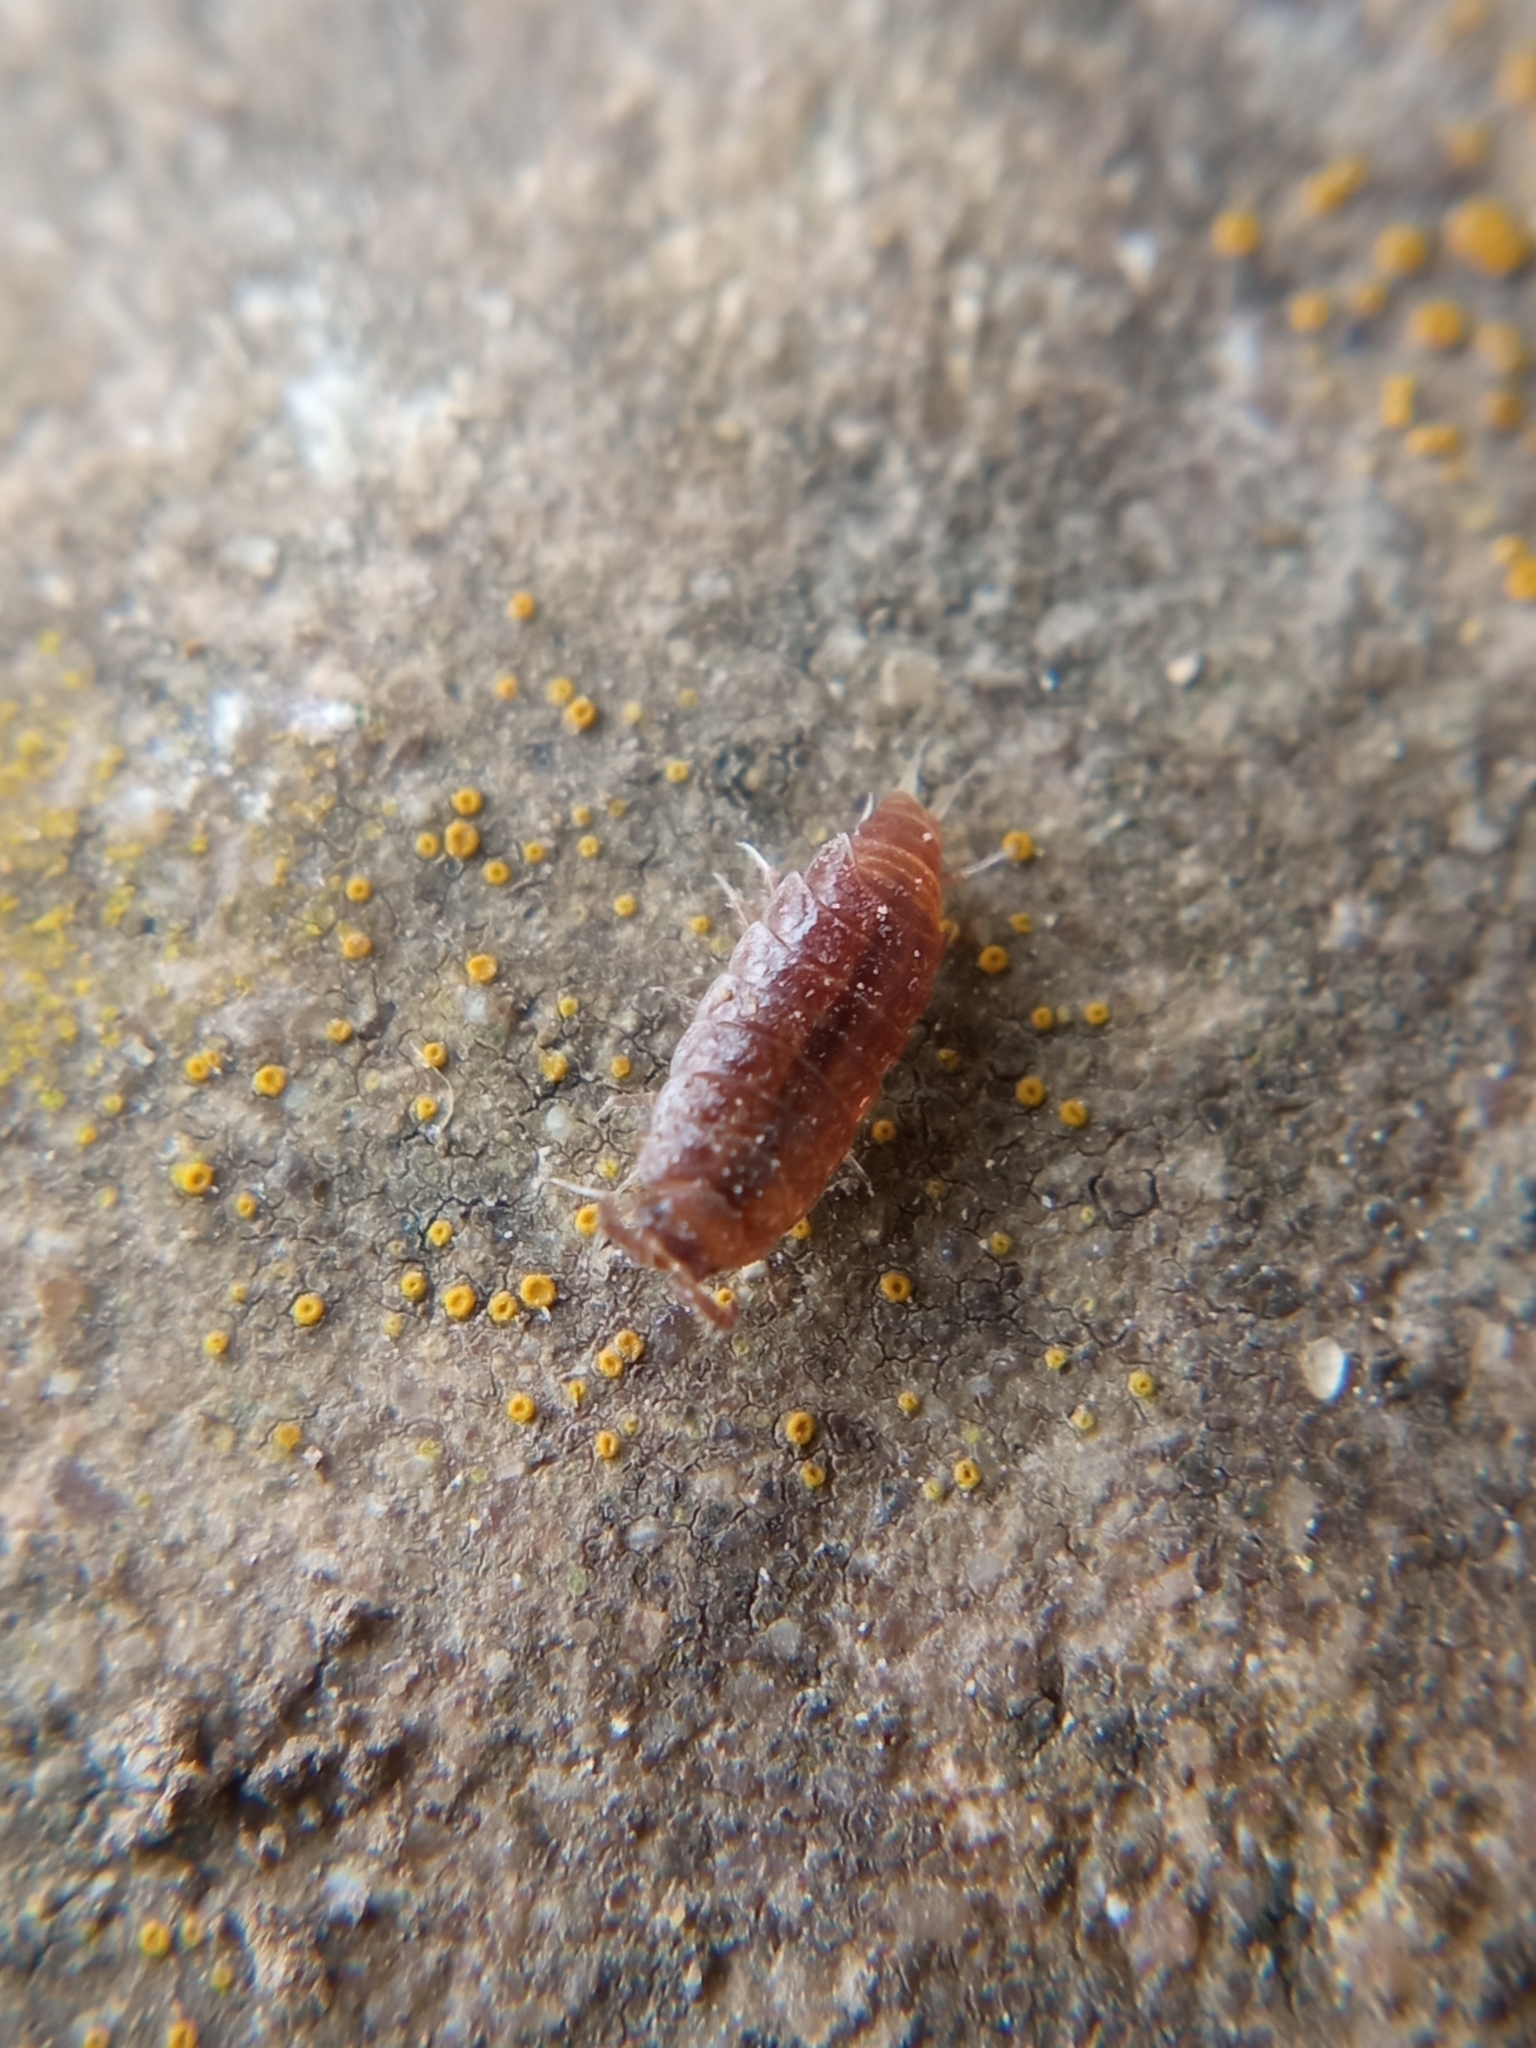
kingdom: Animalia
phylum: Arthropoda
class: Malacostraca
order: Isopoda
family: Trichoniscidae
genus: Trichoniscus
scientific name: Trichoniscus
